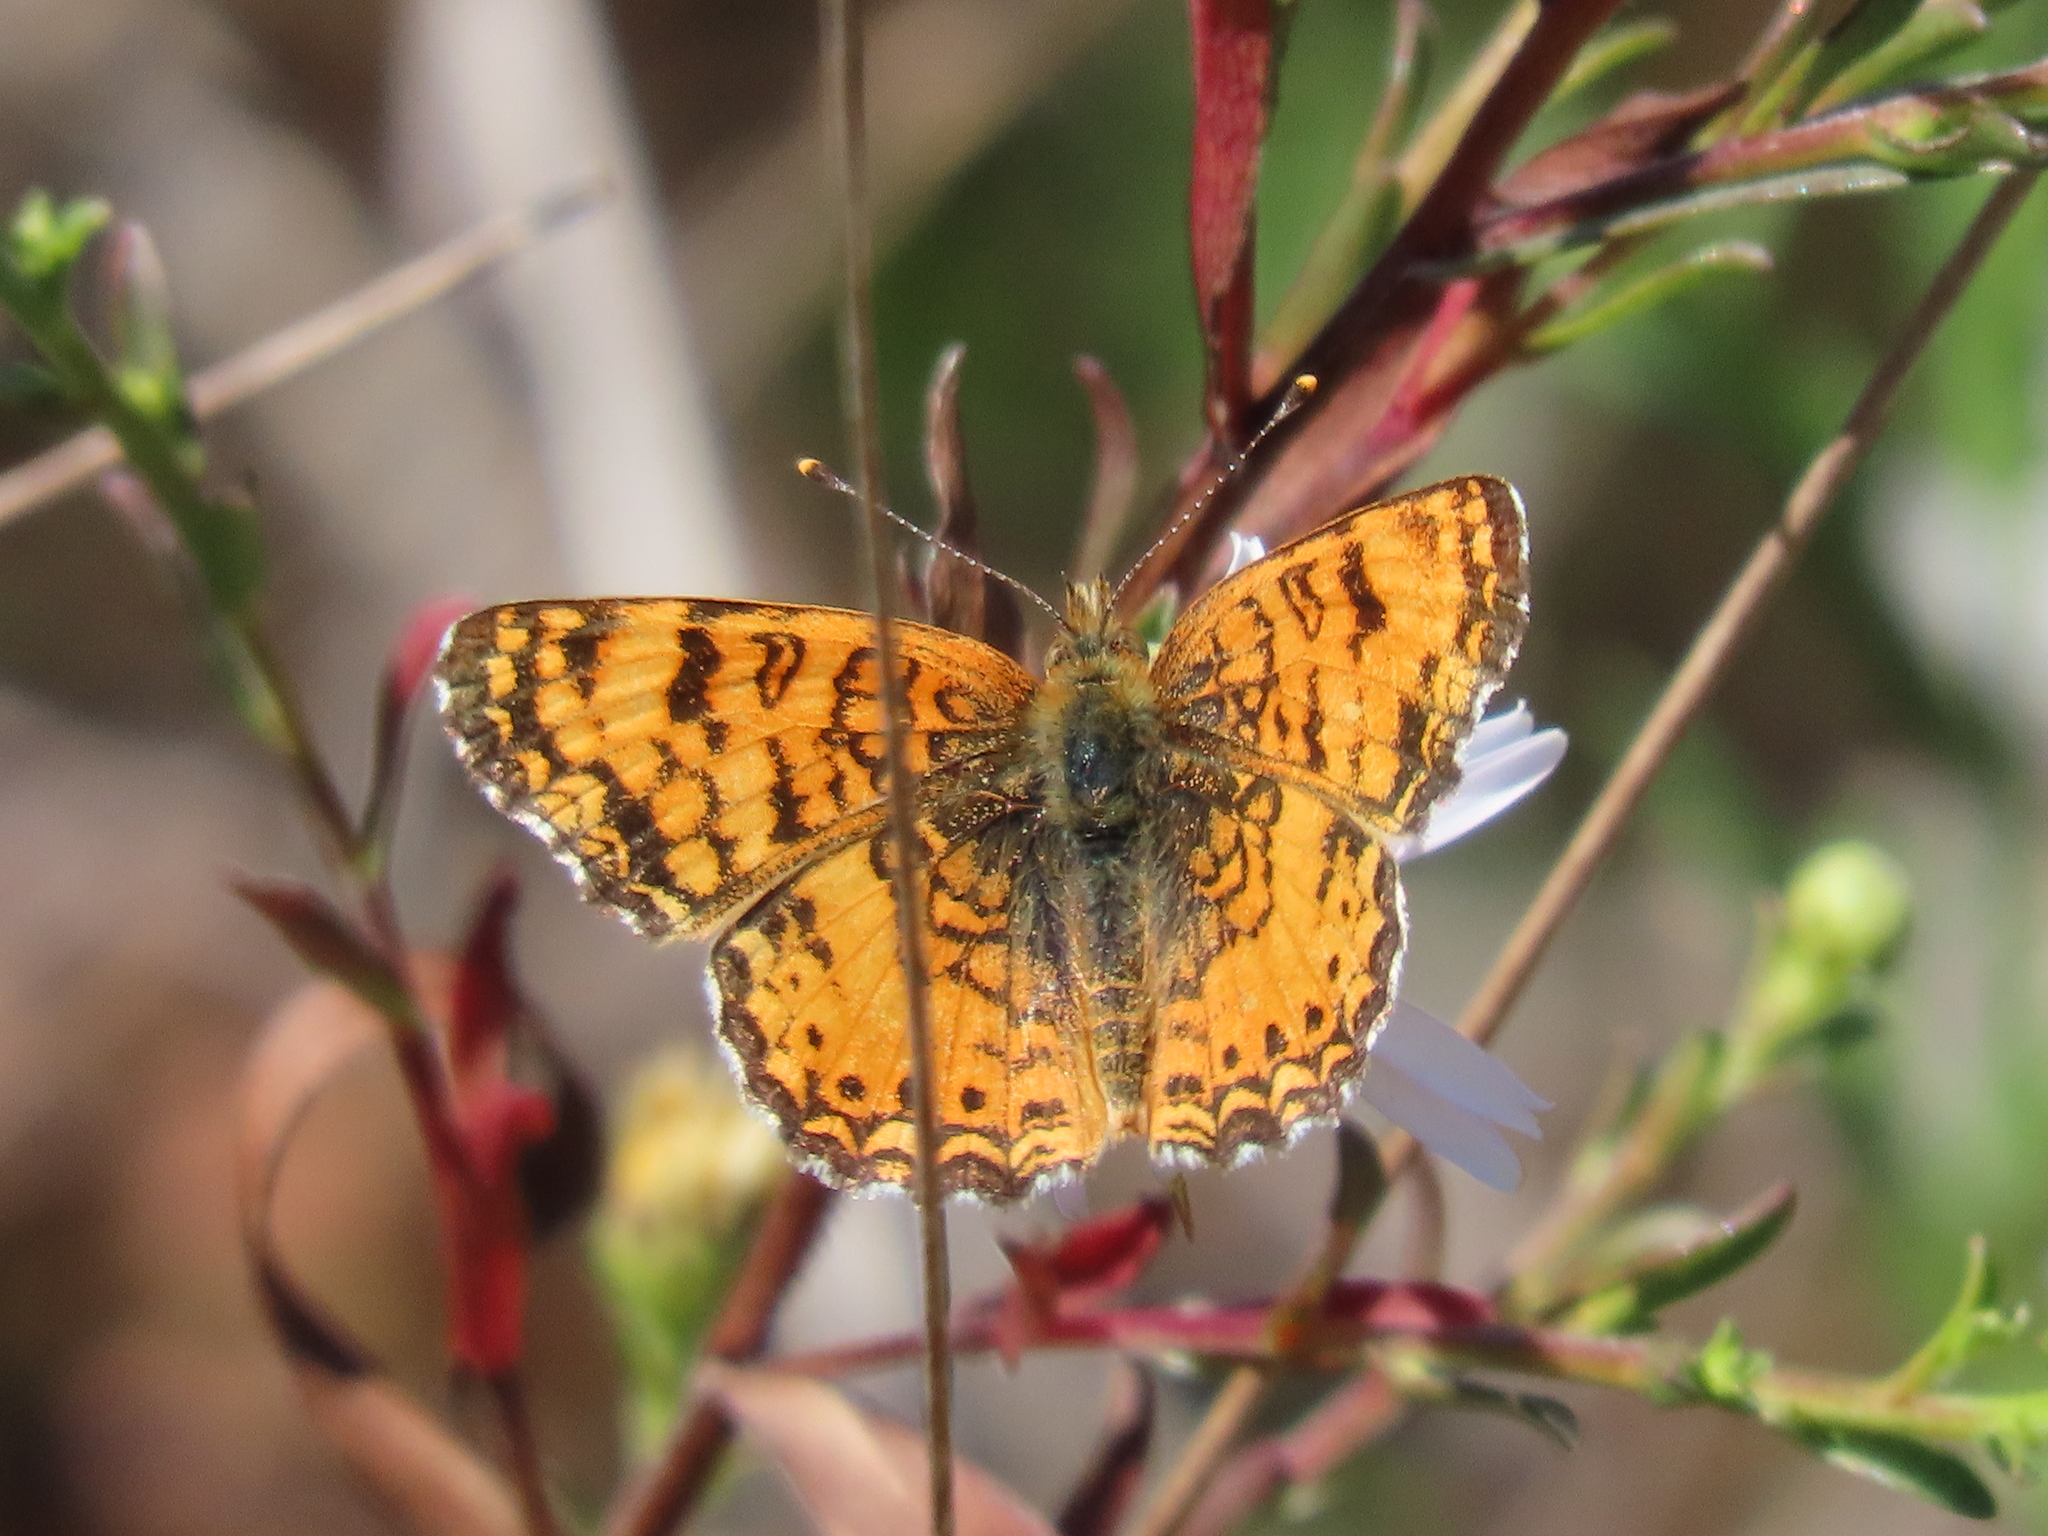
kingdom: Animalia
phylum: Arthropoda
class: Insecta
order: Lepidoptera
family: Nymphalidae
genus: Eresia
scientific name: Eresia aveyrona
